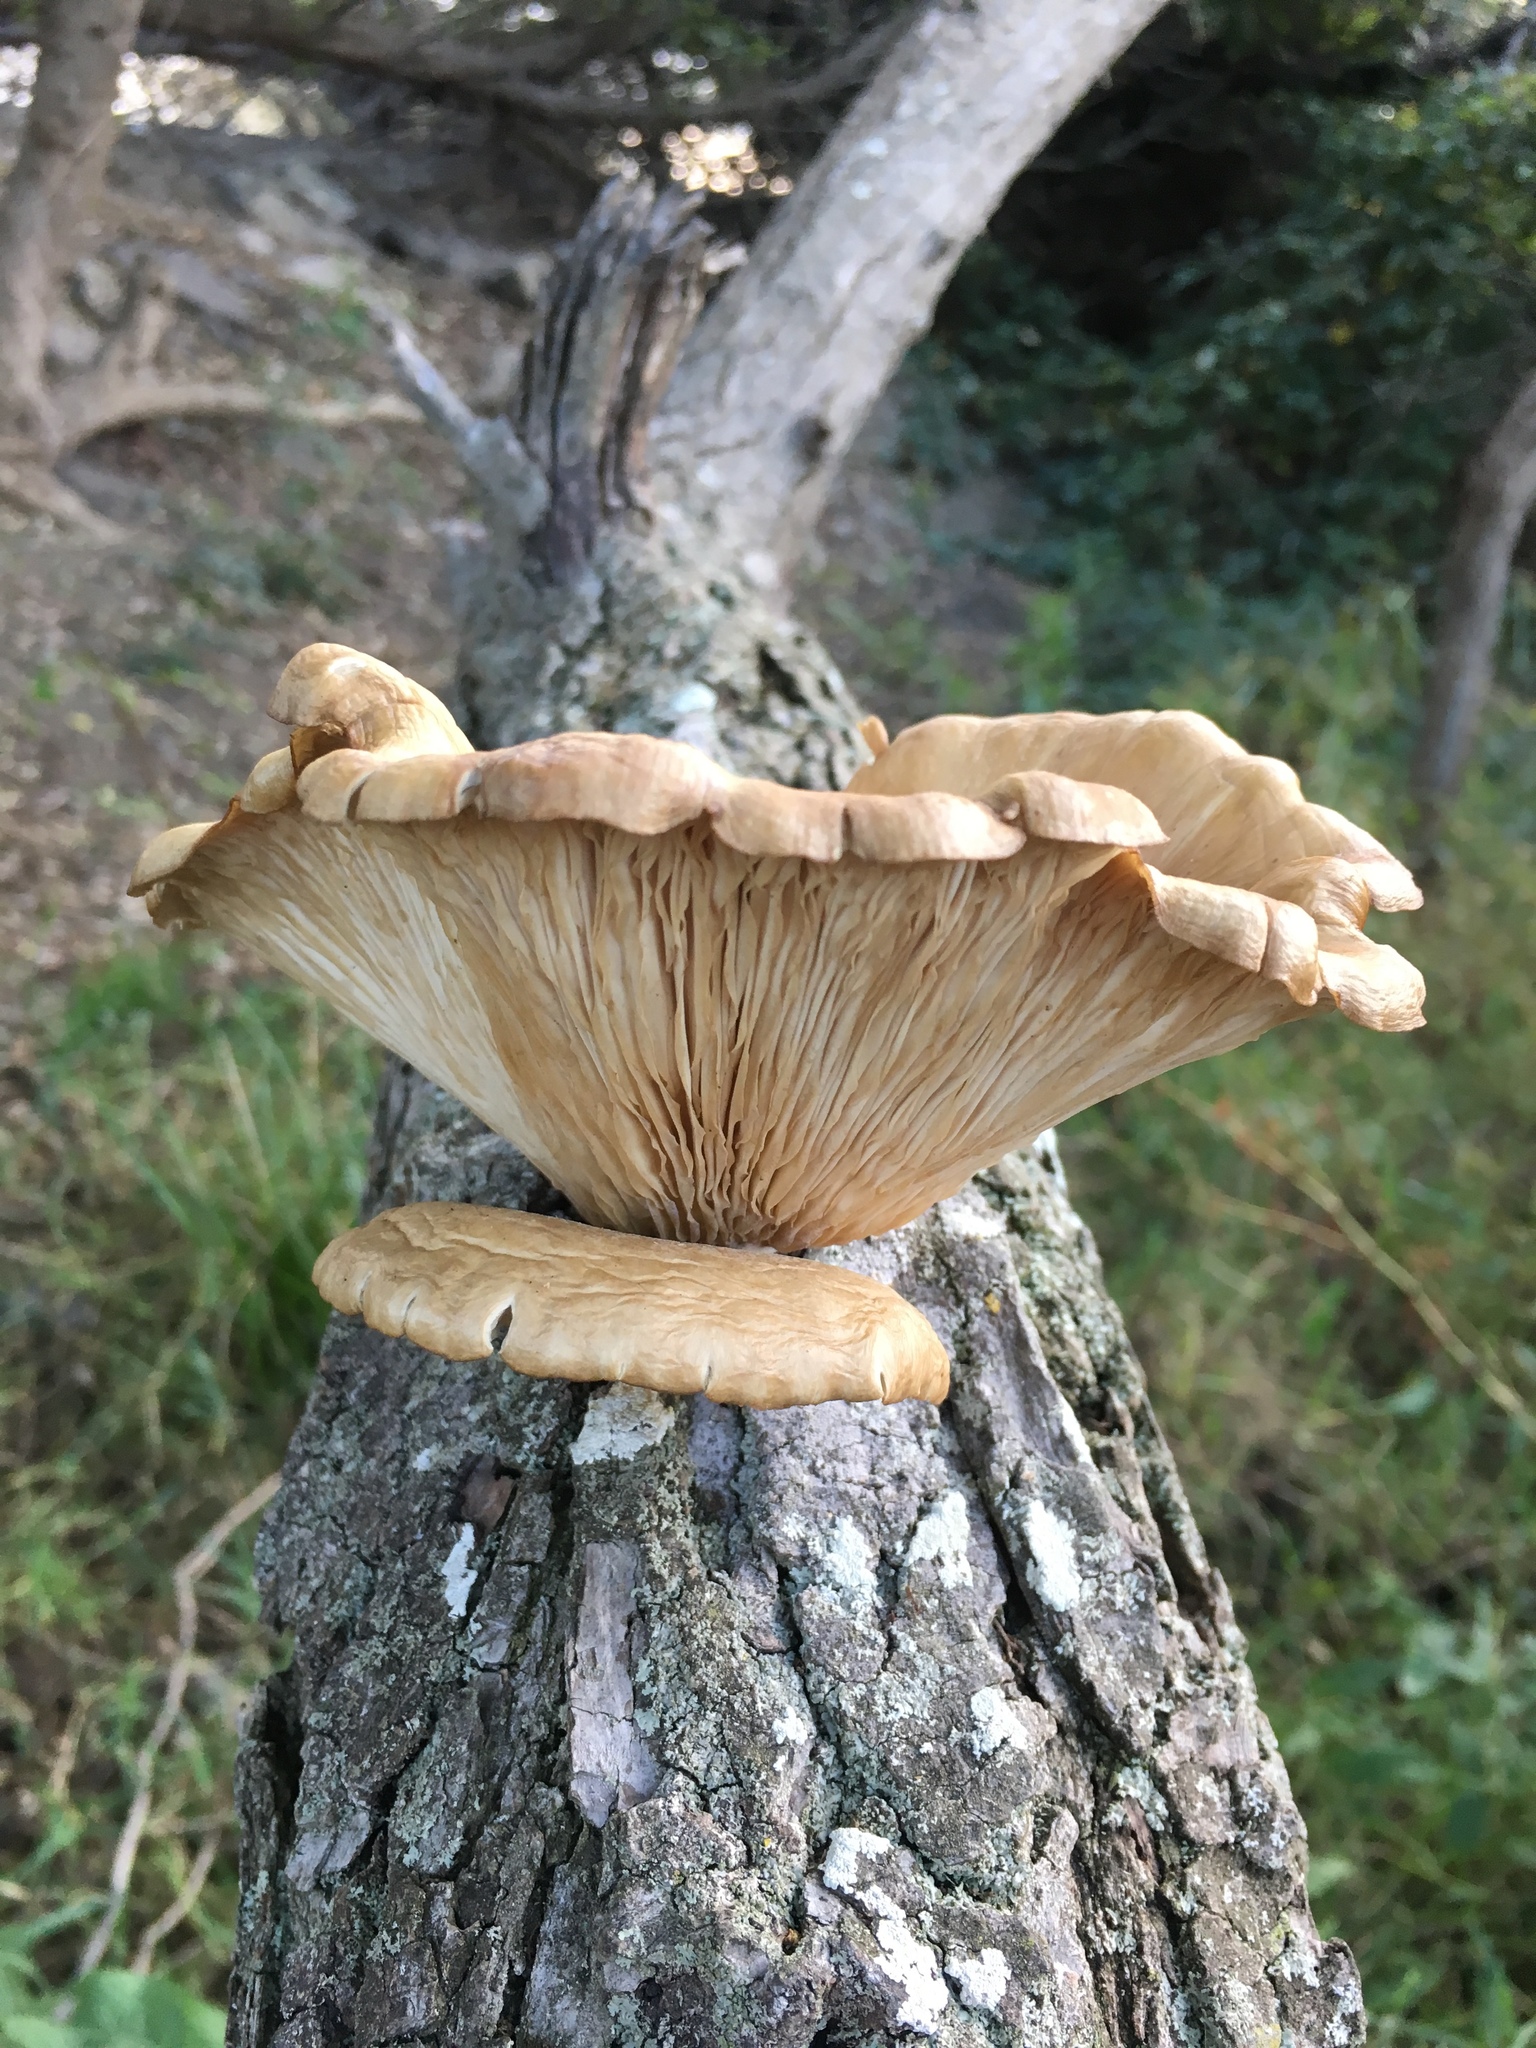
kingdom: Fungi
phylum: Basidiomycota
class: Agaricomycetes
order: Agaricales
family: Pleurotaceae
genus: Pleurotus
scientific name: Pleurotus ostreatus
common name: Oyster mushroom
